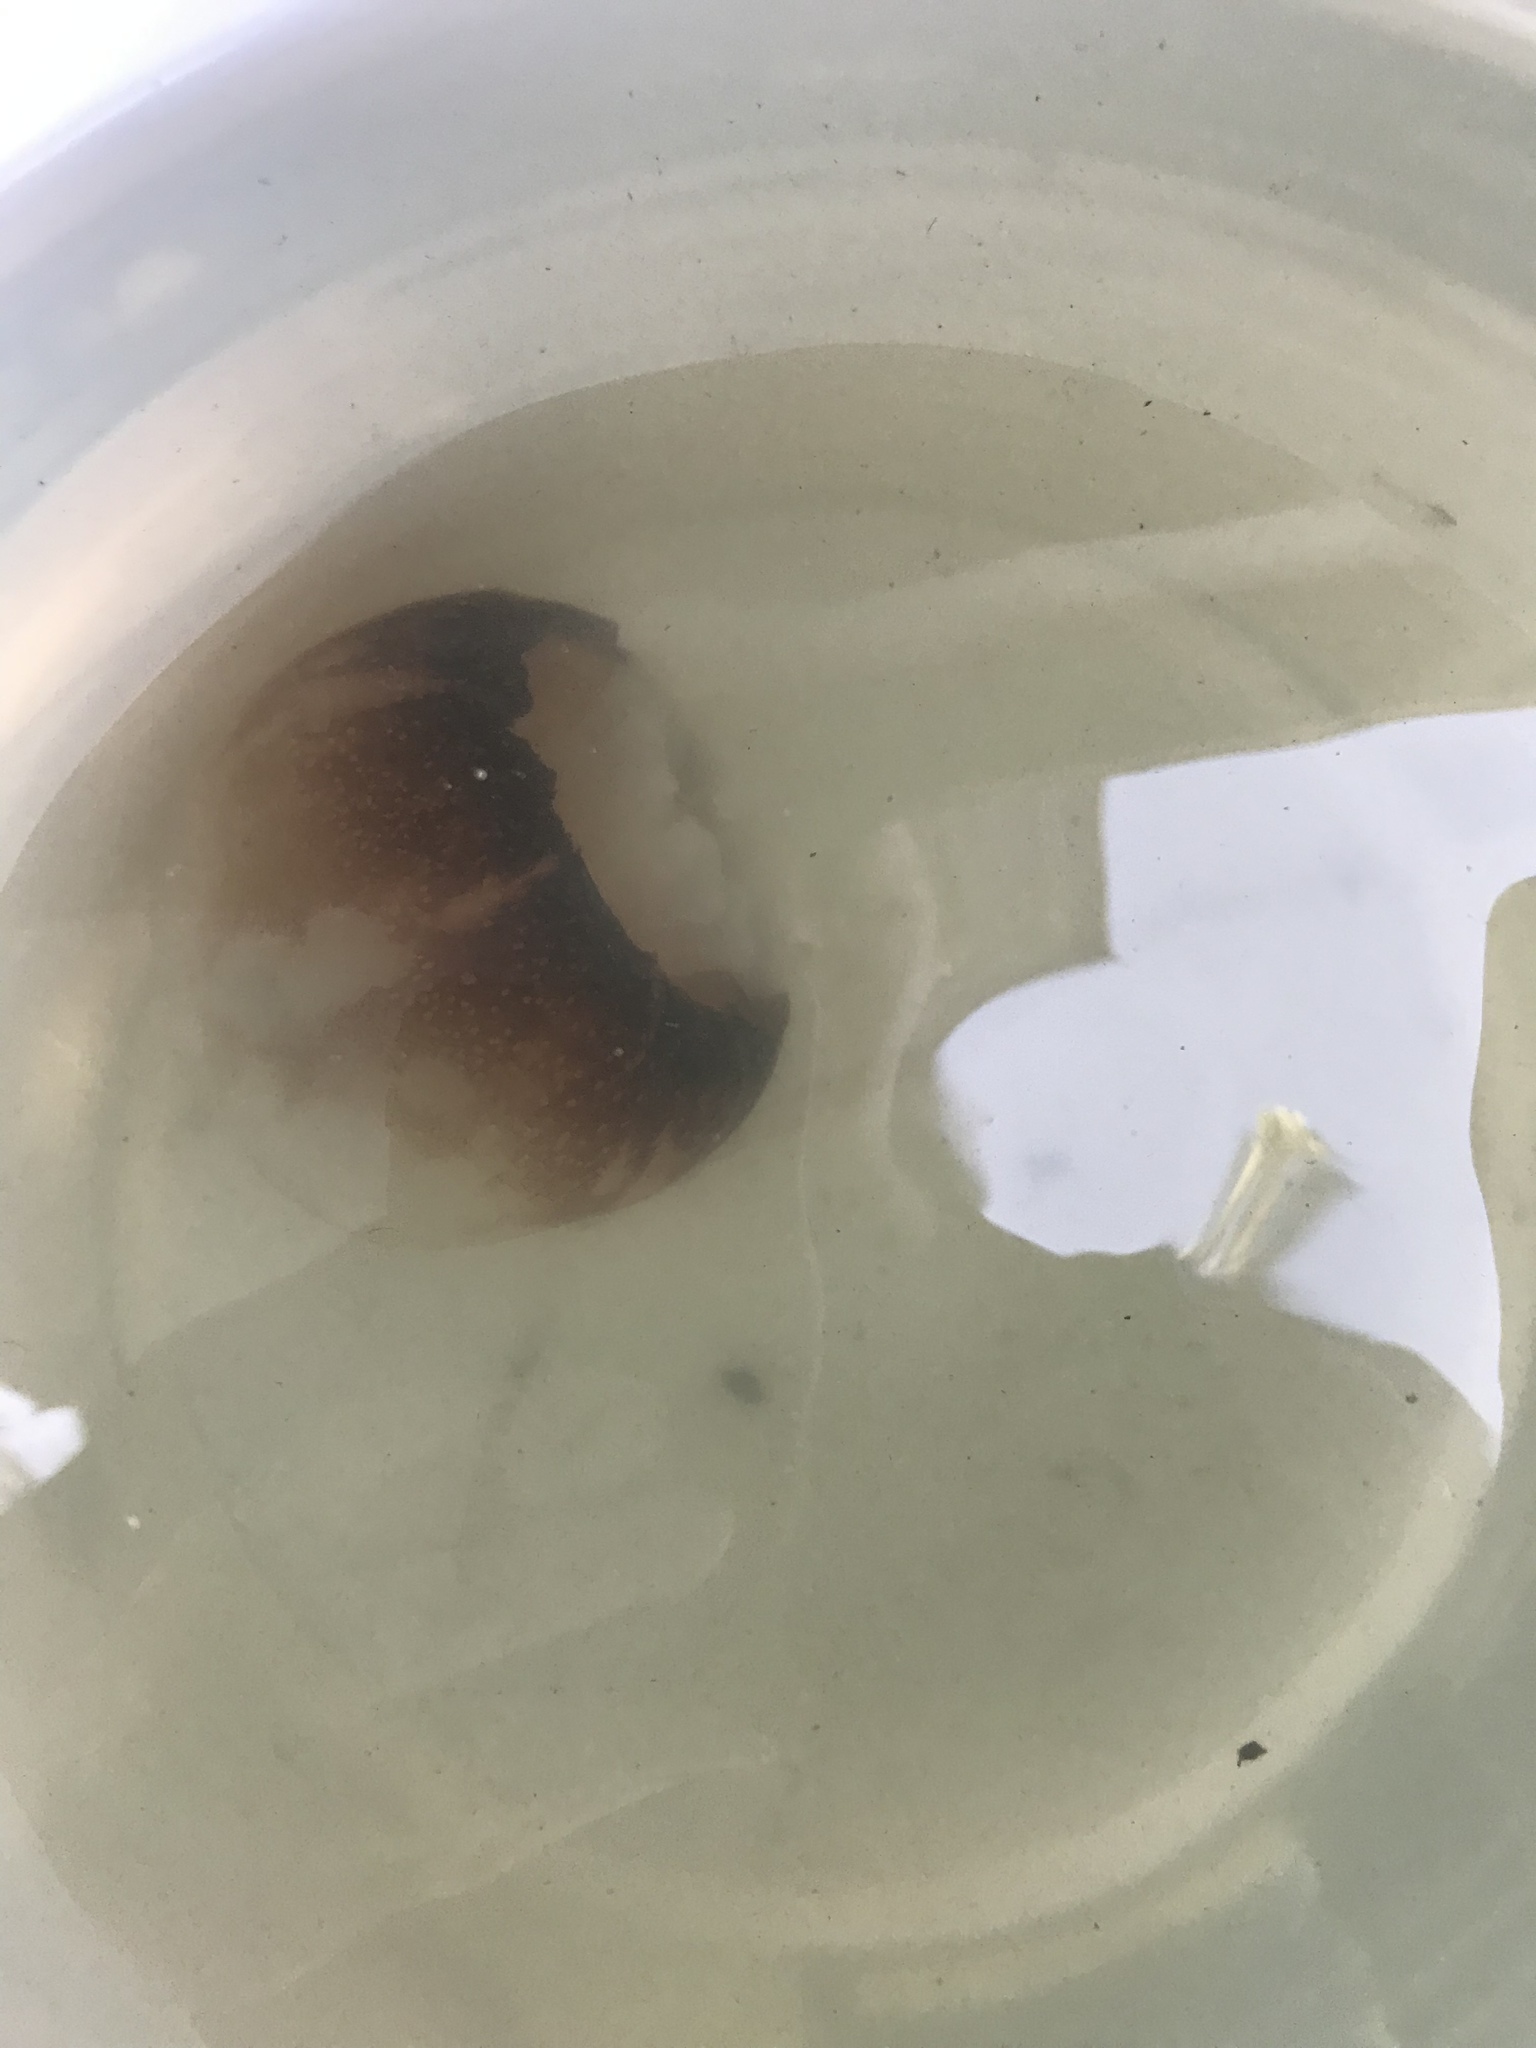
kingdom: Animalia
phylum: Cnidaria
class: Scyphozoa
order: Rhizostomeae
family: Stomolophidae
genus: Stomolophus
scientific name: Stomolophus meleagris
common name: Cabbagehead
